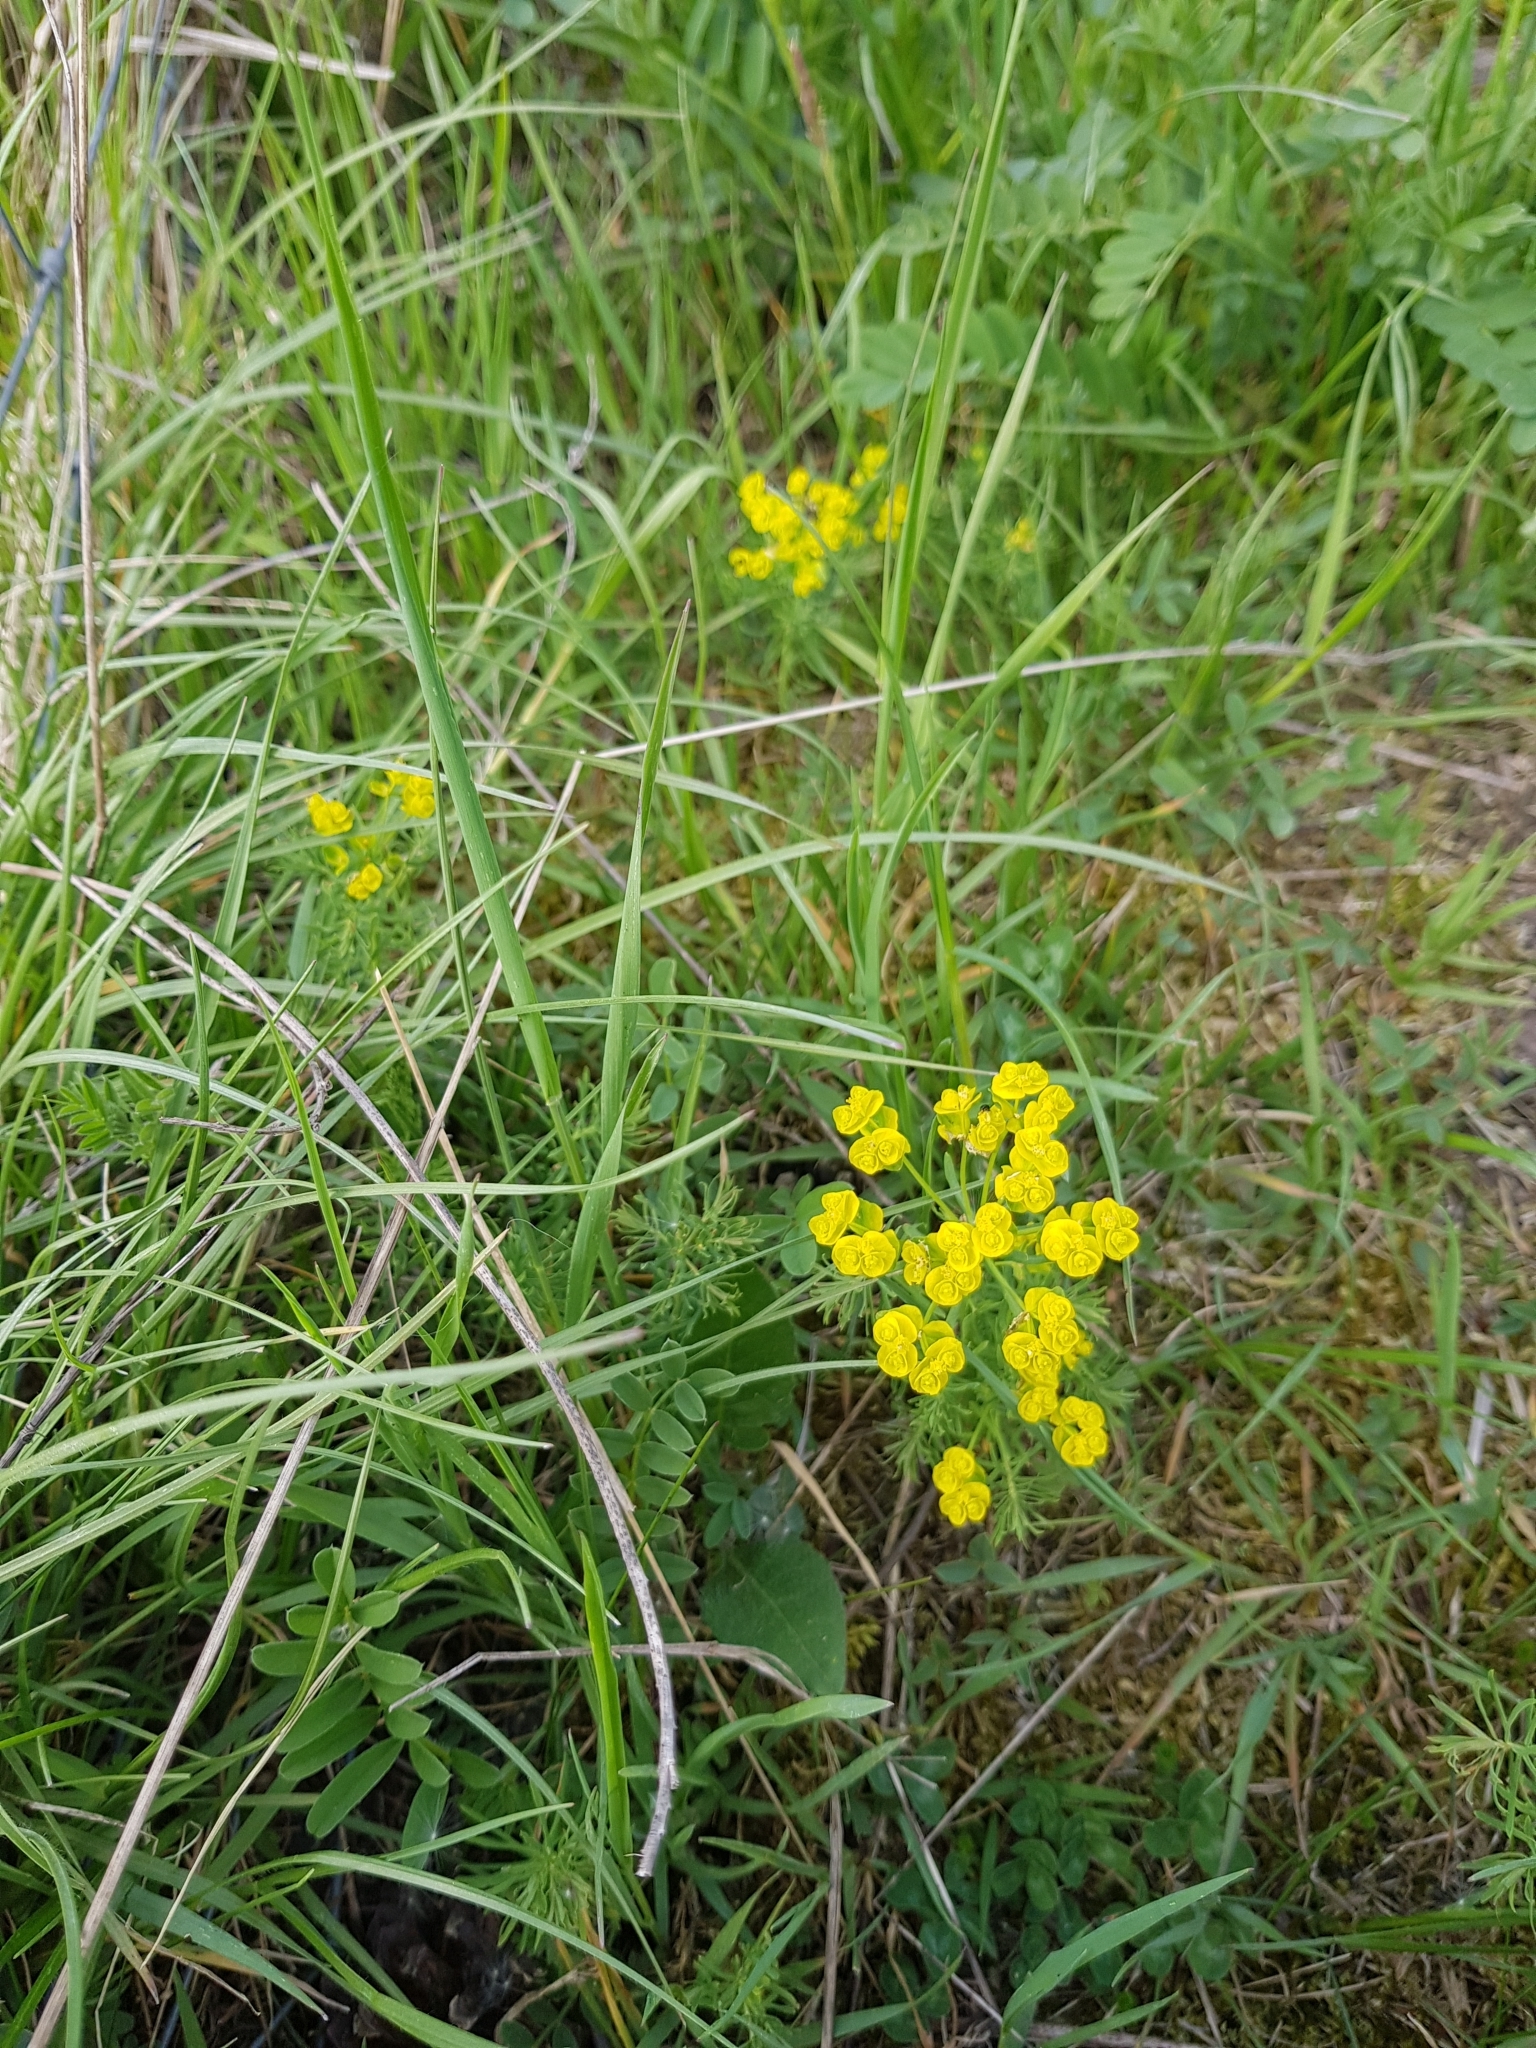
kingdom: Plantae
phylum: Tracheophyta
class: Magnoliopsida
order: Malpighiales
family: Euphorbiaceae
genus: Euphorbia
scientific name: Euphorbia cyparissias
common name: Cypress spurge
